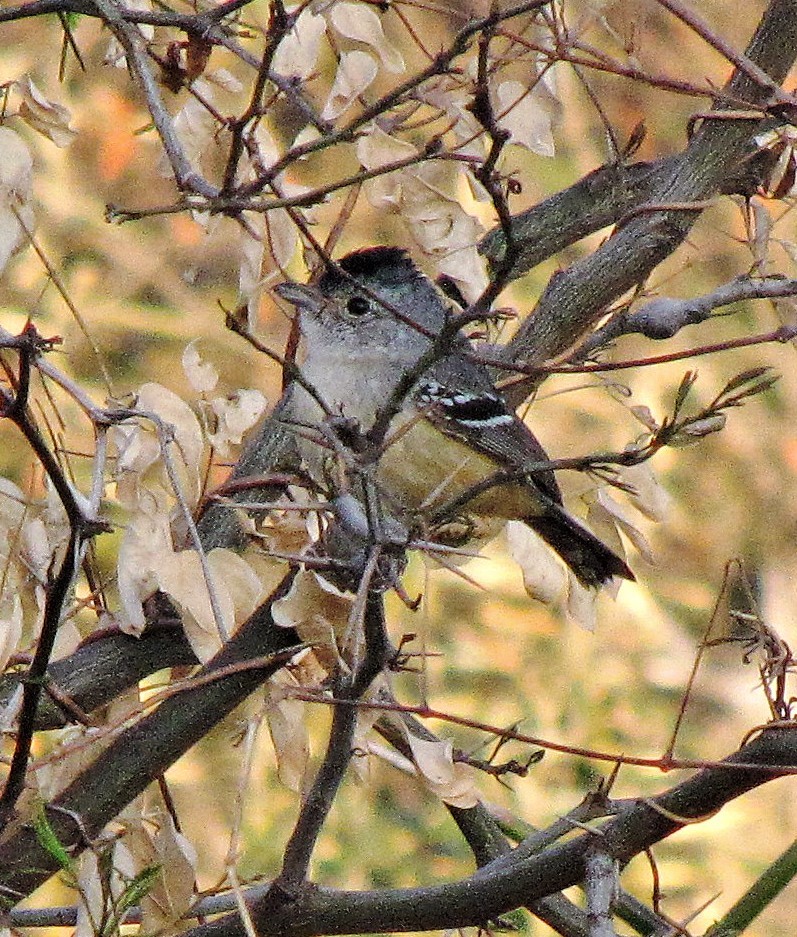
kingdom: Animalia
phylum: Chordata
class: Aves
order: Passeriformes
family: Thamnophilidae
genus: Thamnophilus
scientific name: Thamnophilus caerulescens
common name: Variable antshrike
